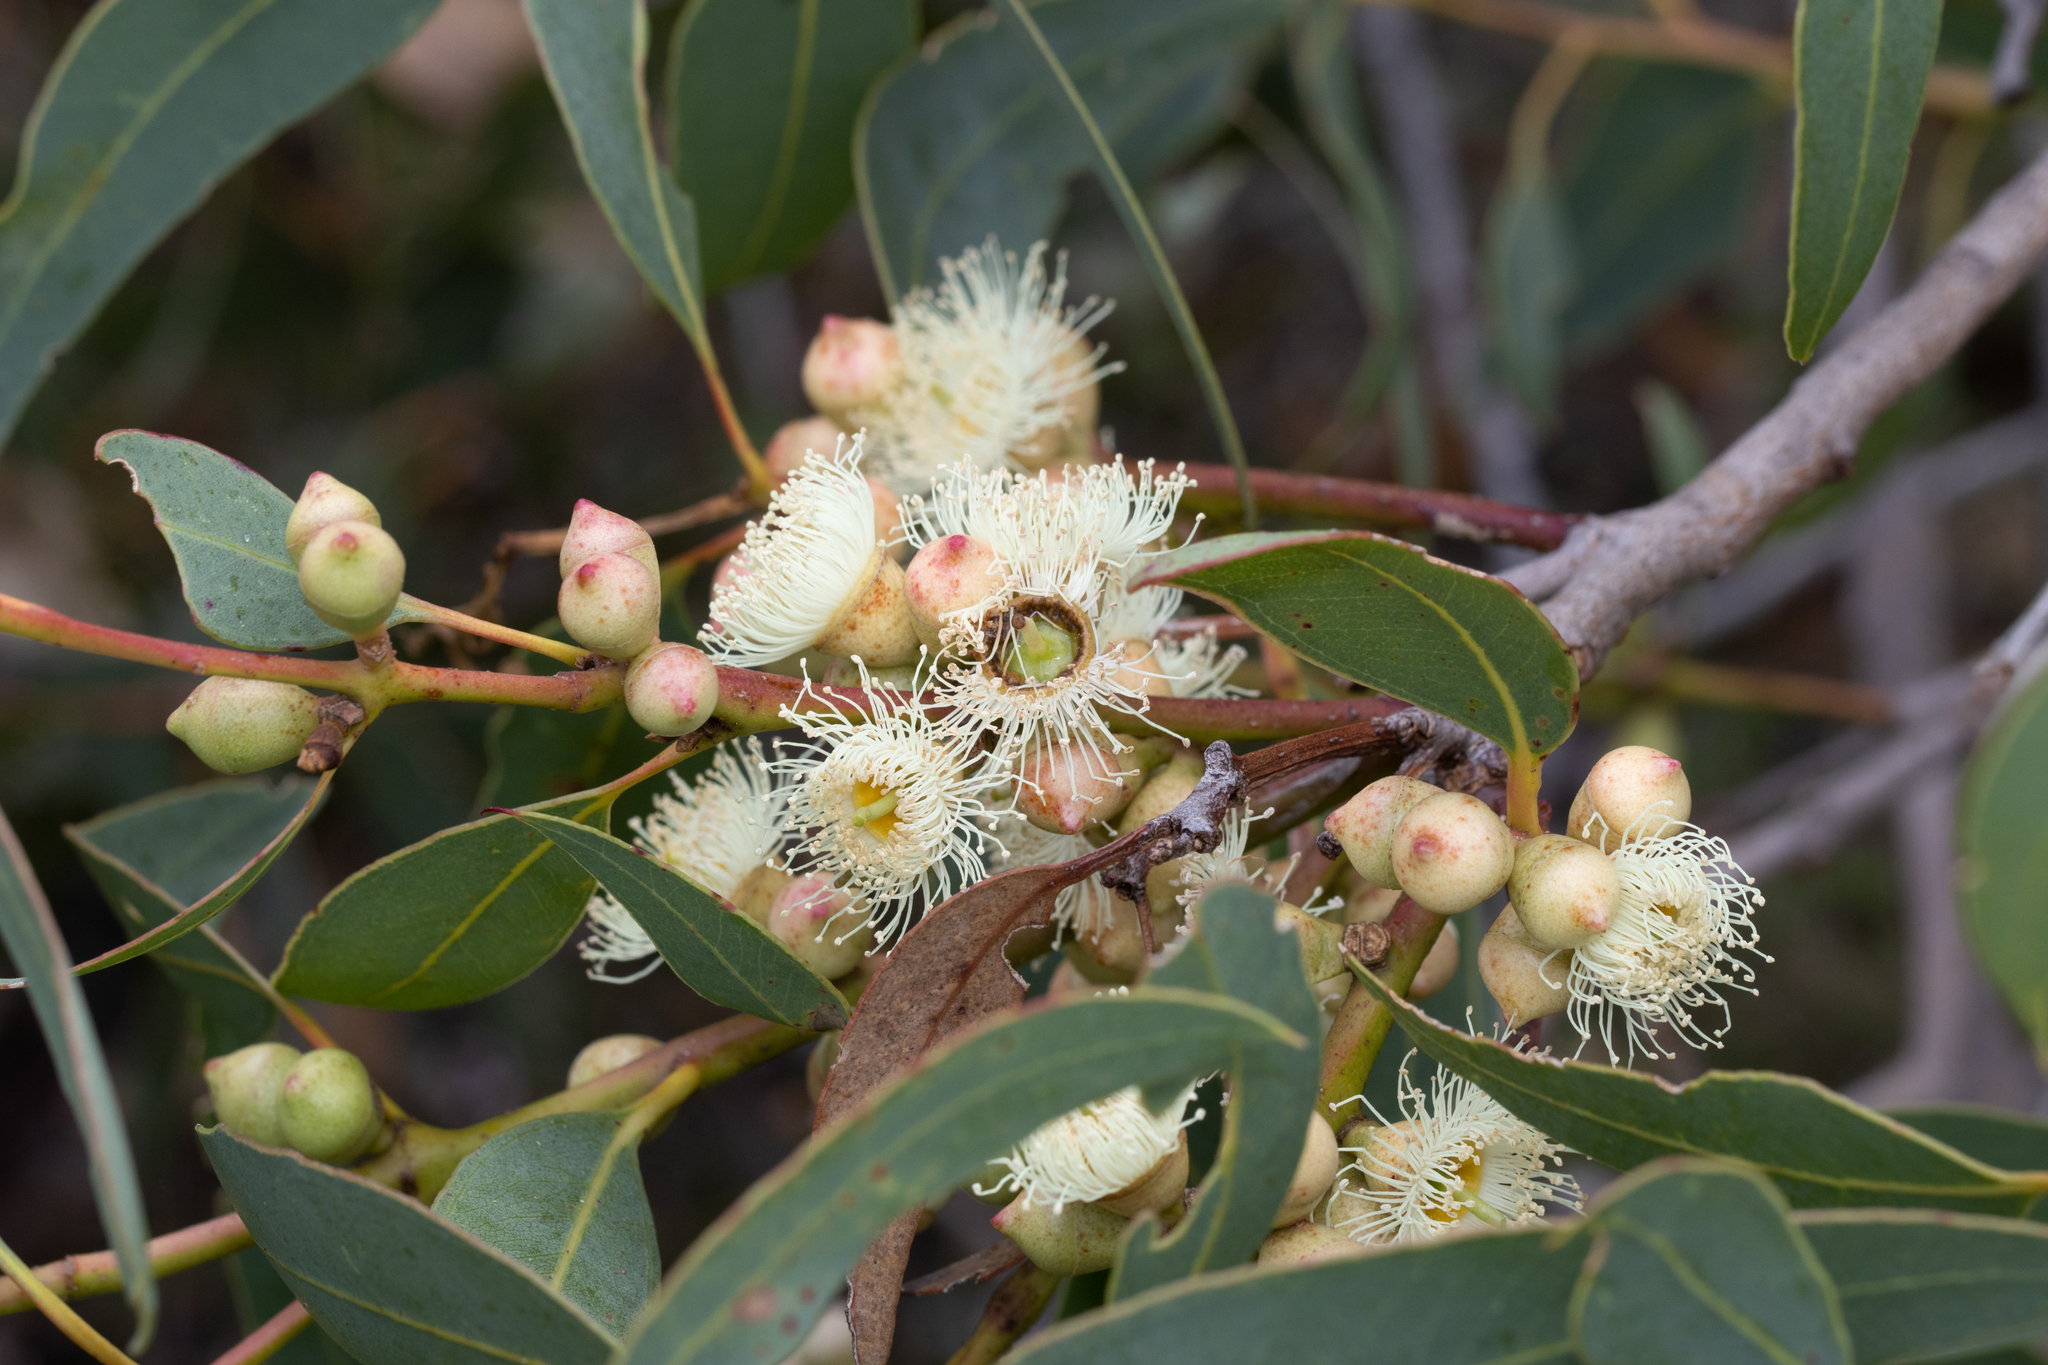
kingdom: Plantae
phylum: Tracheophyta
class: Magnoliopsida
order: Myrtales
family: Myrtaceae
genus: Eucalyptus
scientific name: Eucalyptus cosmophylla
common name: Bog-gum
